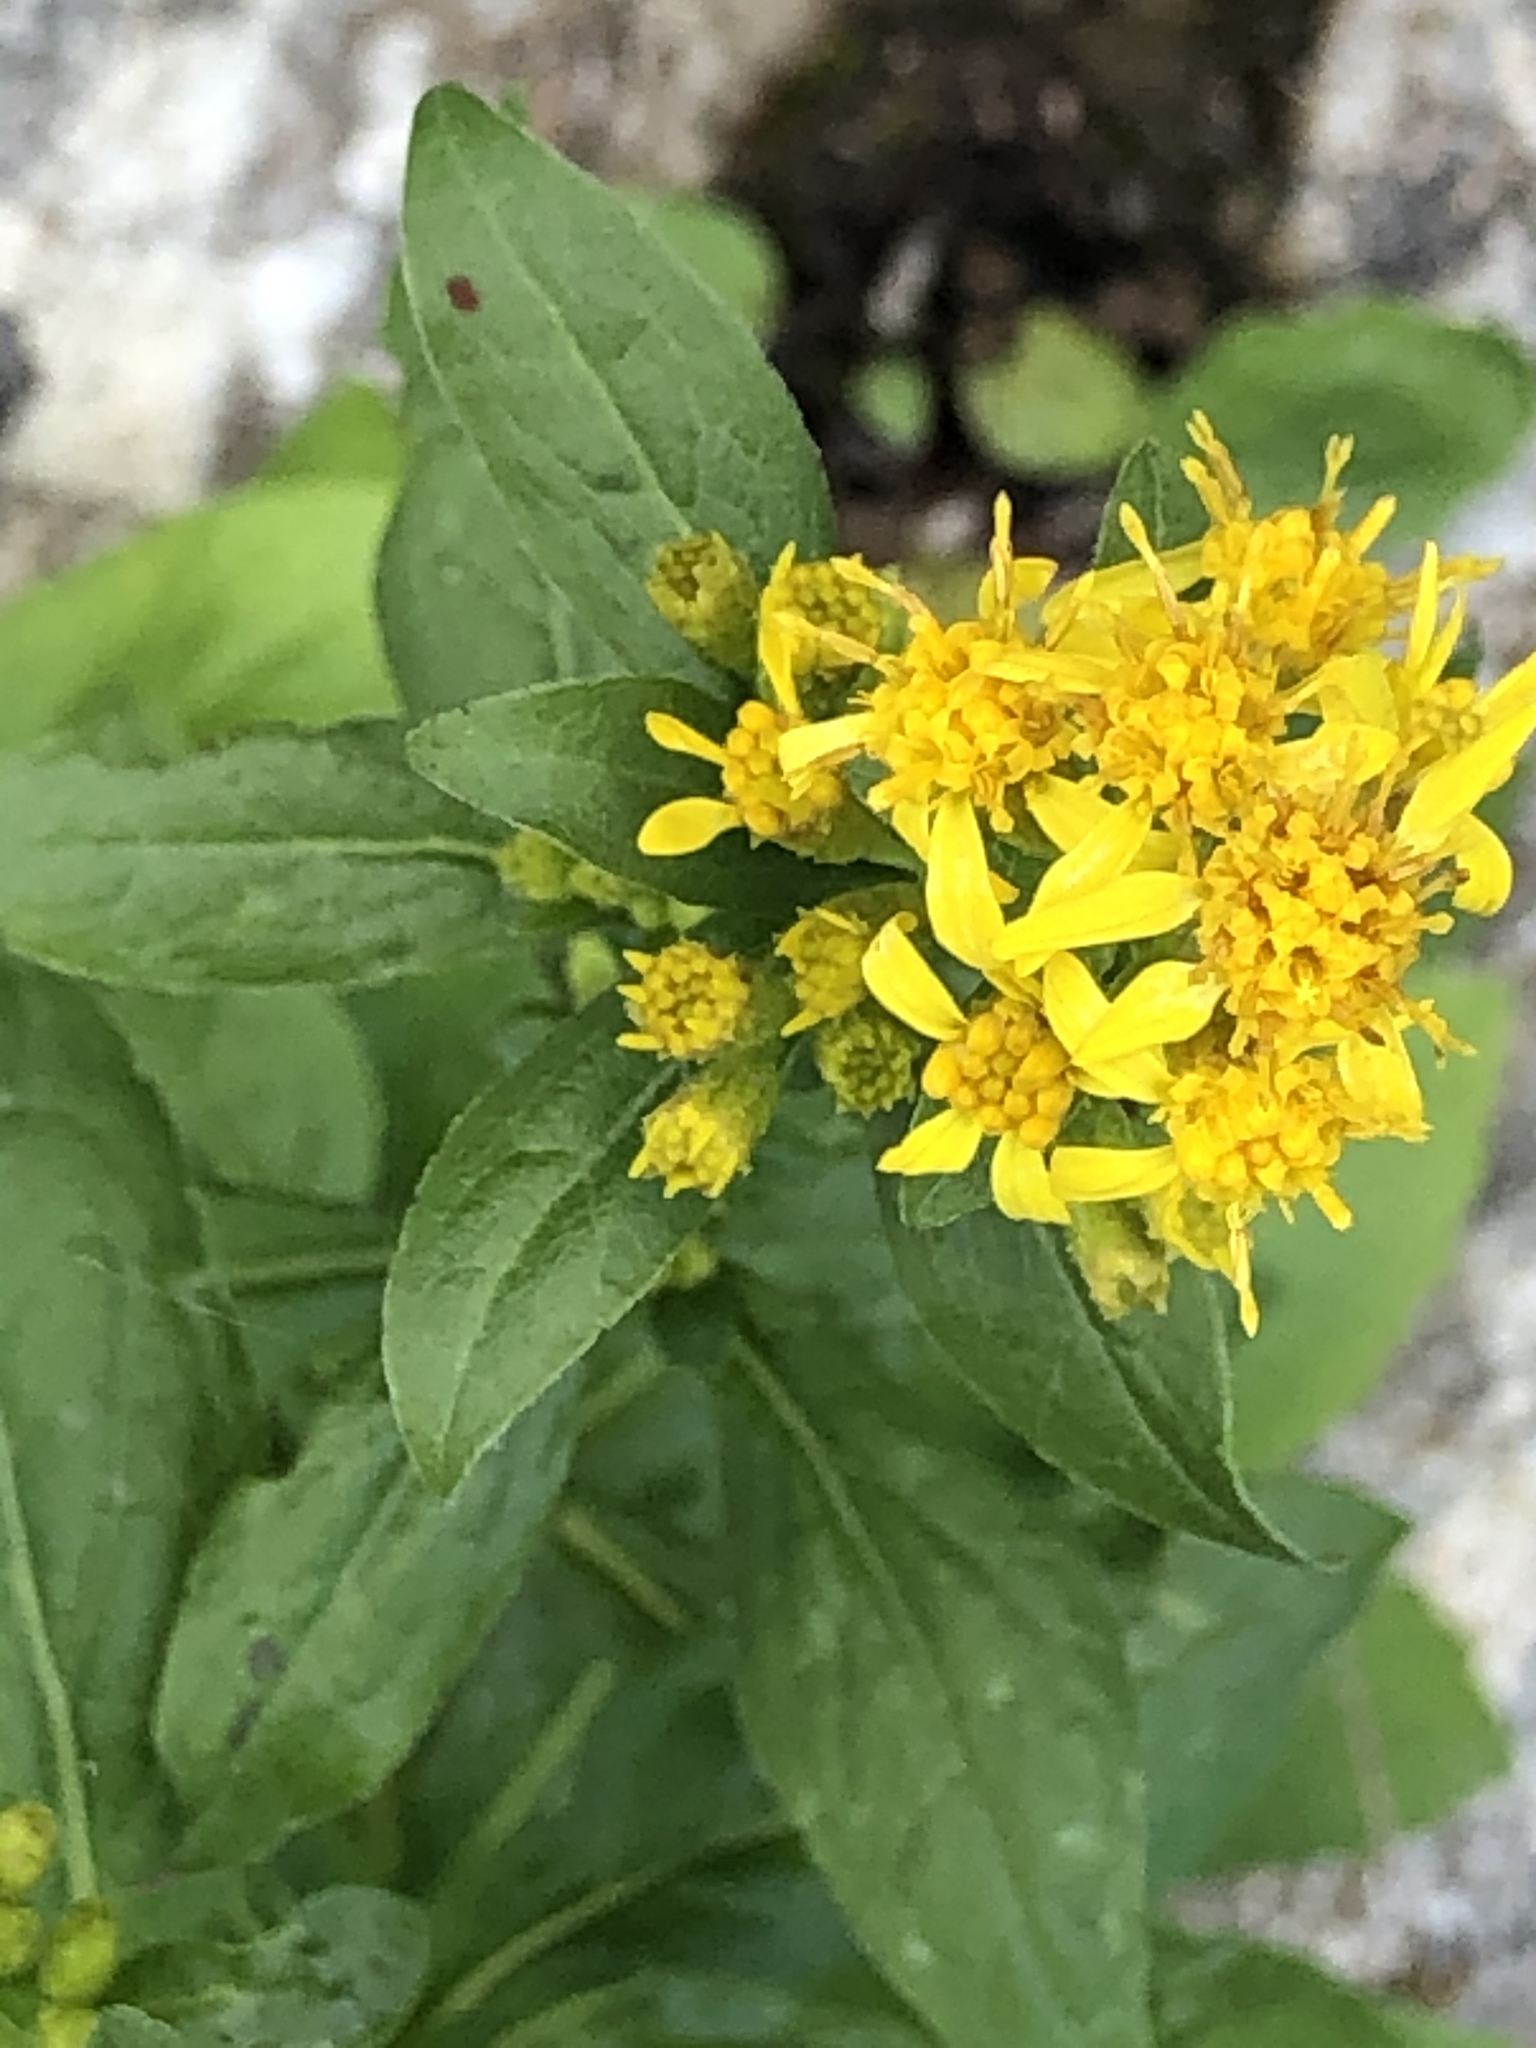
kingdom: Plantae
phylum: Tracheophyta
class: Magnoliopsida
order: Asterales
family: Asteraceae
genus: Solidago
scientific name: Solidago virgaurea
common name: Goldenrod
